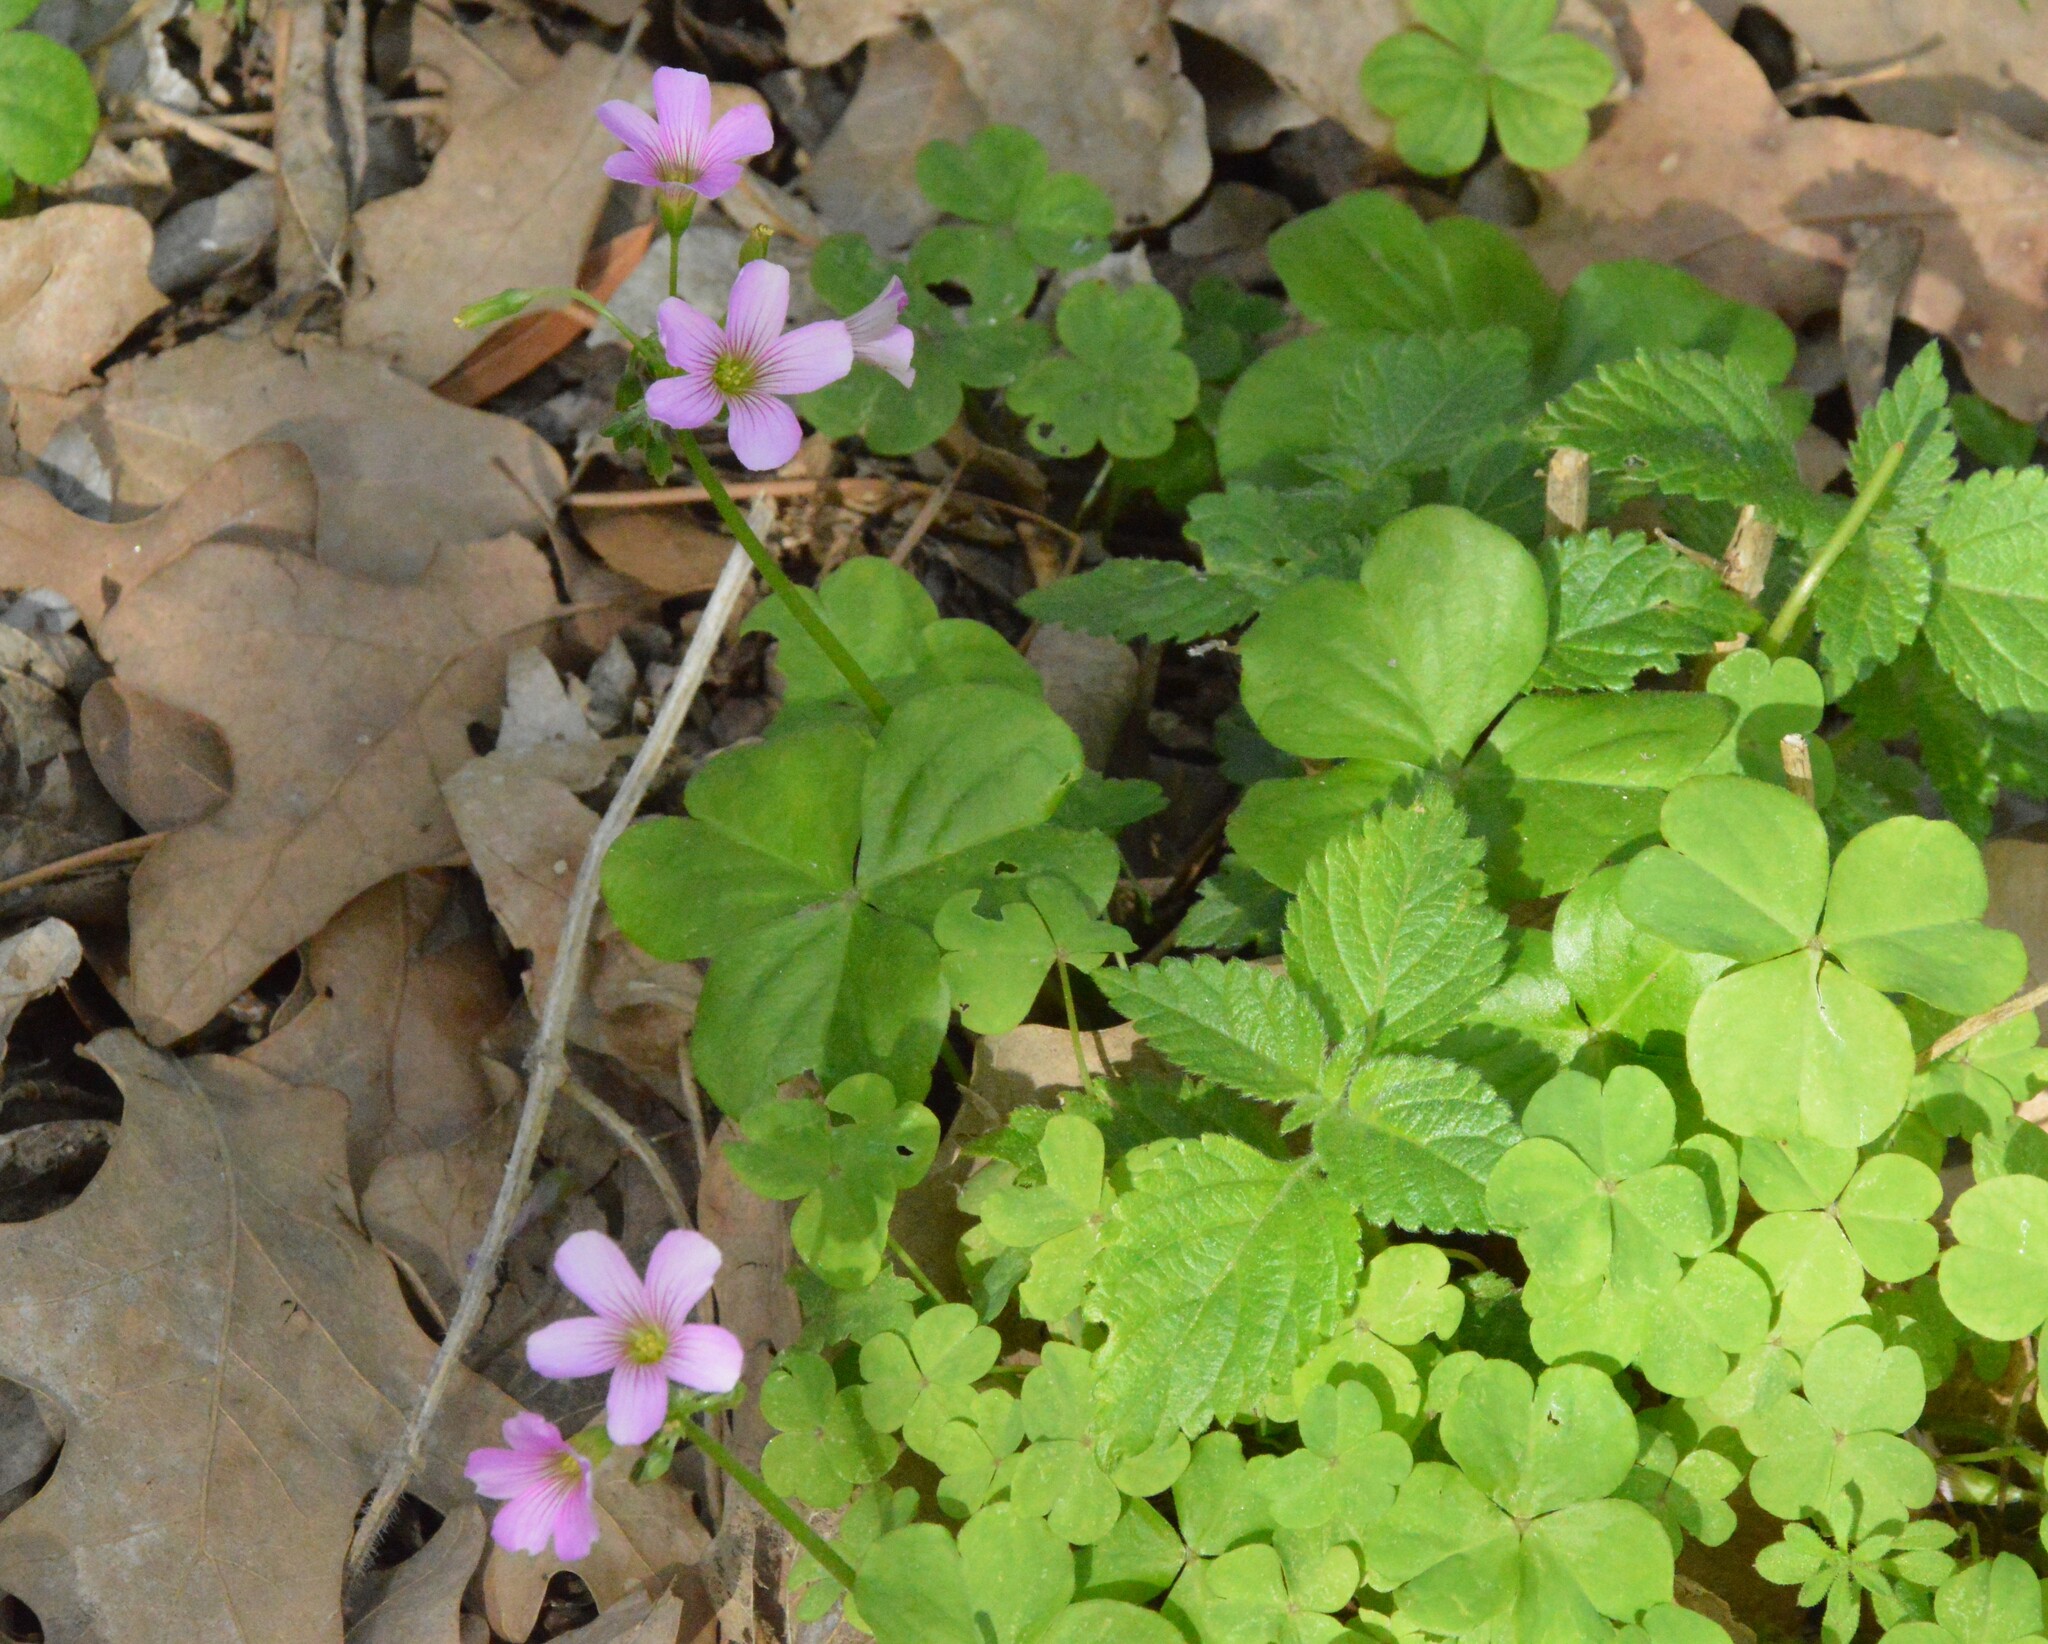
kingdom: Plantae
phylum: Tracheophyta
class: Magnoliopsida
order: Oxalidales
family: Oxalidaceae
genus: Oxalis
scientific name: Oxalis debilis
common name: Large-flowered pink-sorrel
